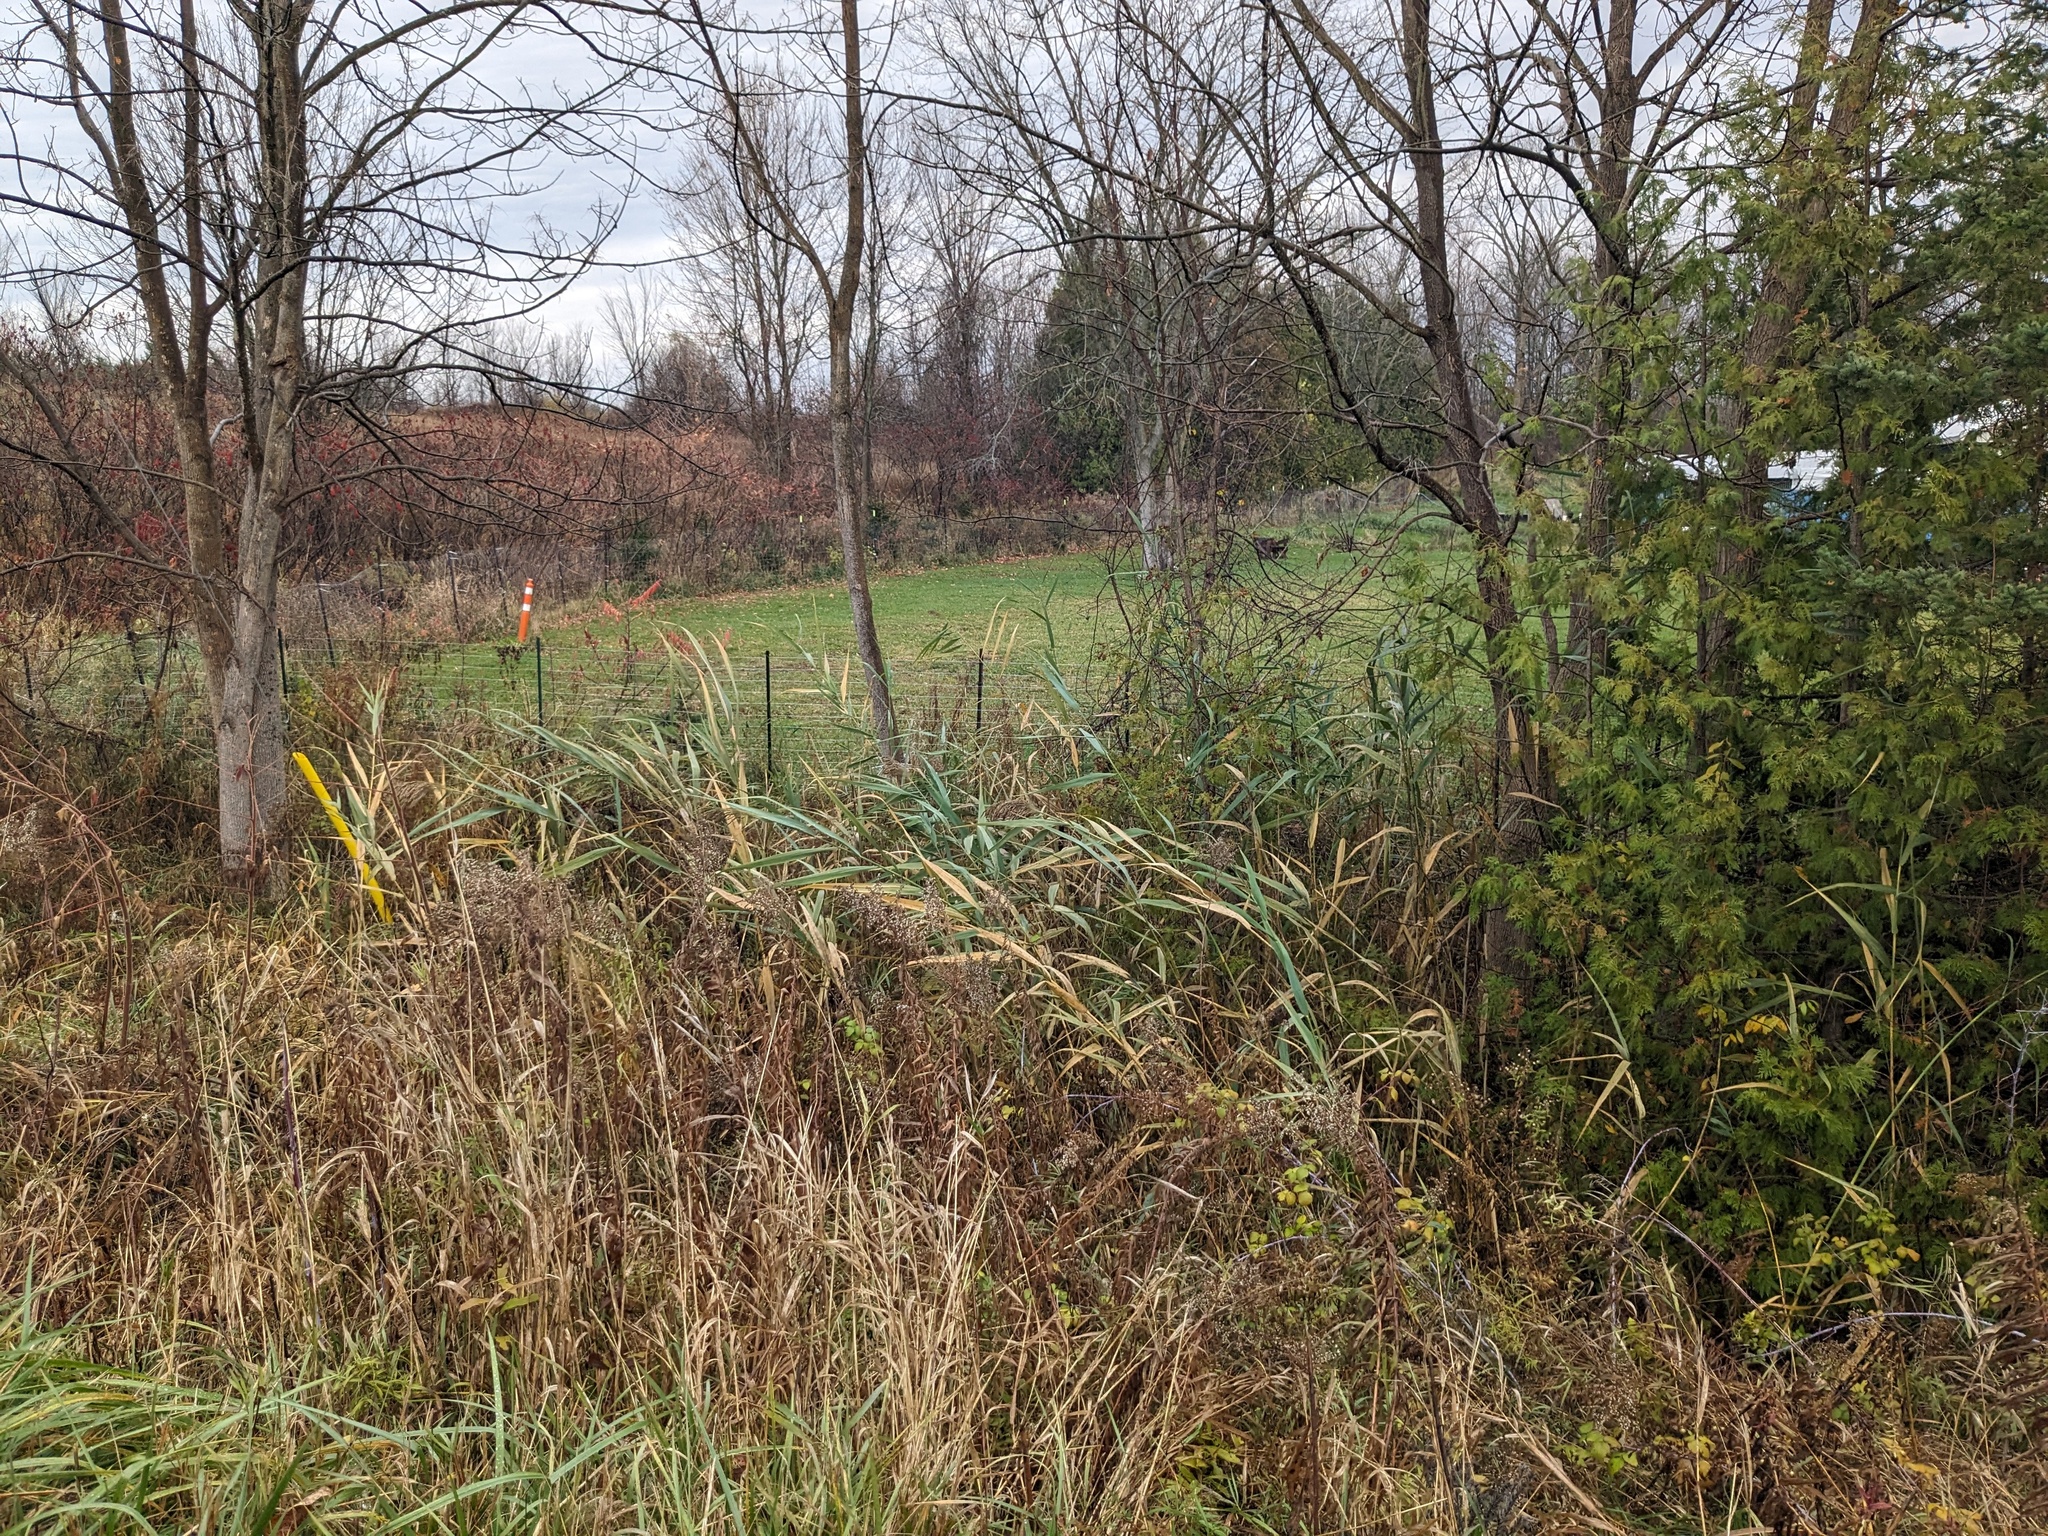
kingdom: Plantae
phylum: Tracheophyta
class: Liliopsida
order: Poales
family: Poaceae
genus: Phragmites
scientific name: Phragmites australis
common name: Common reed
